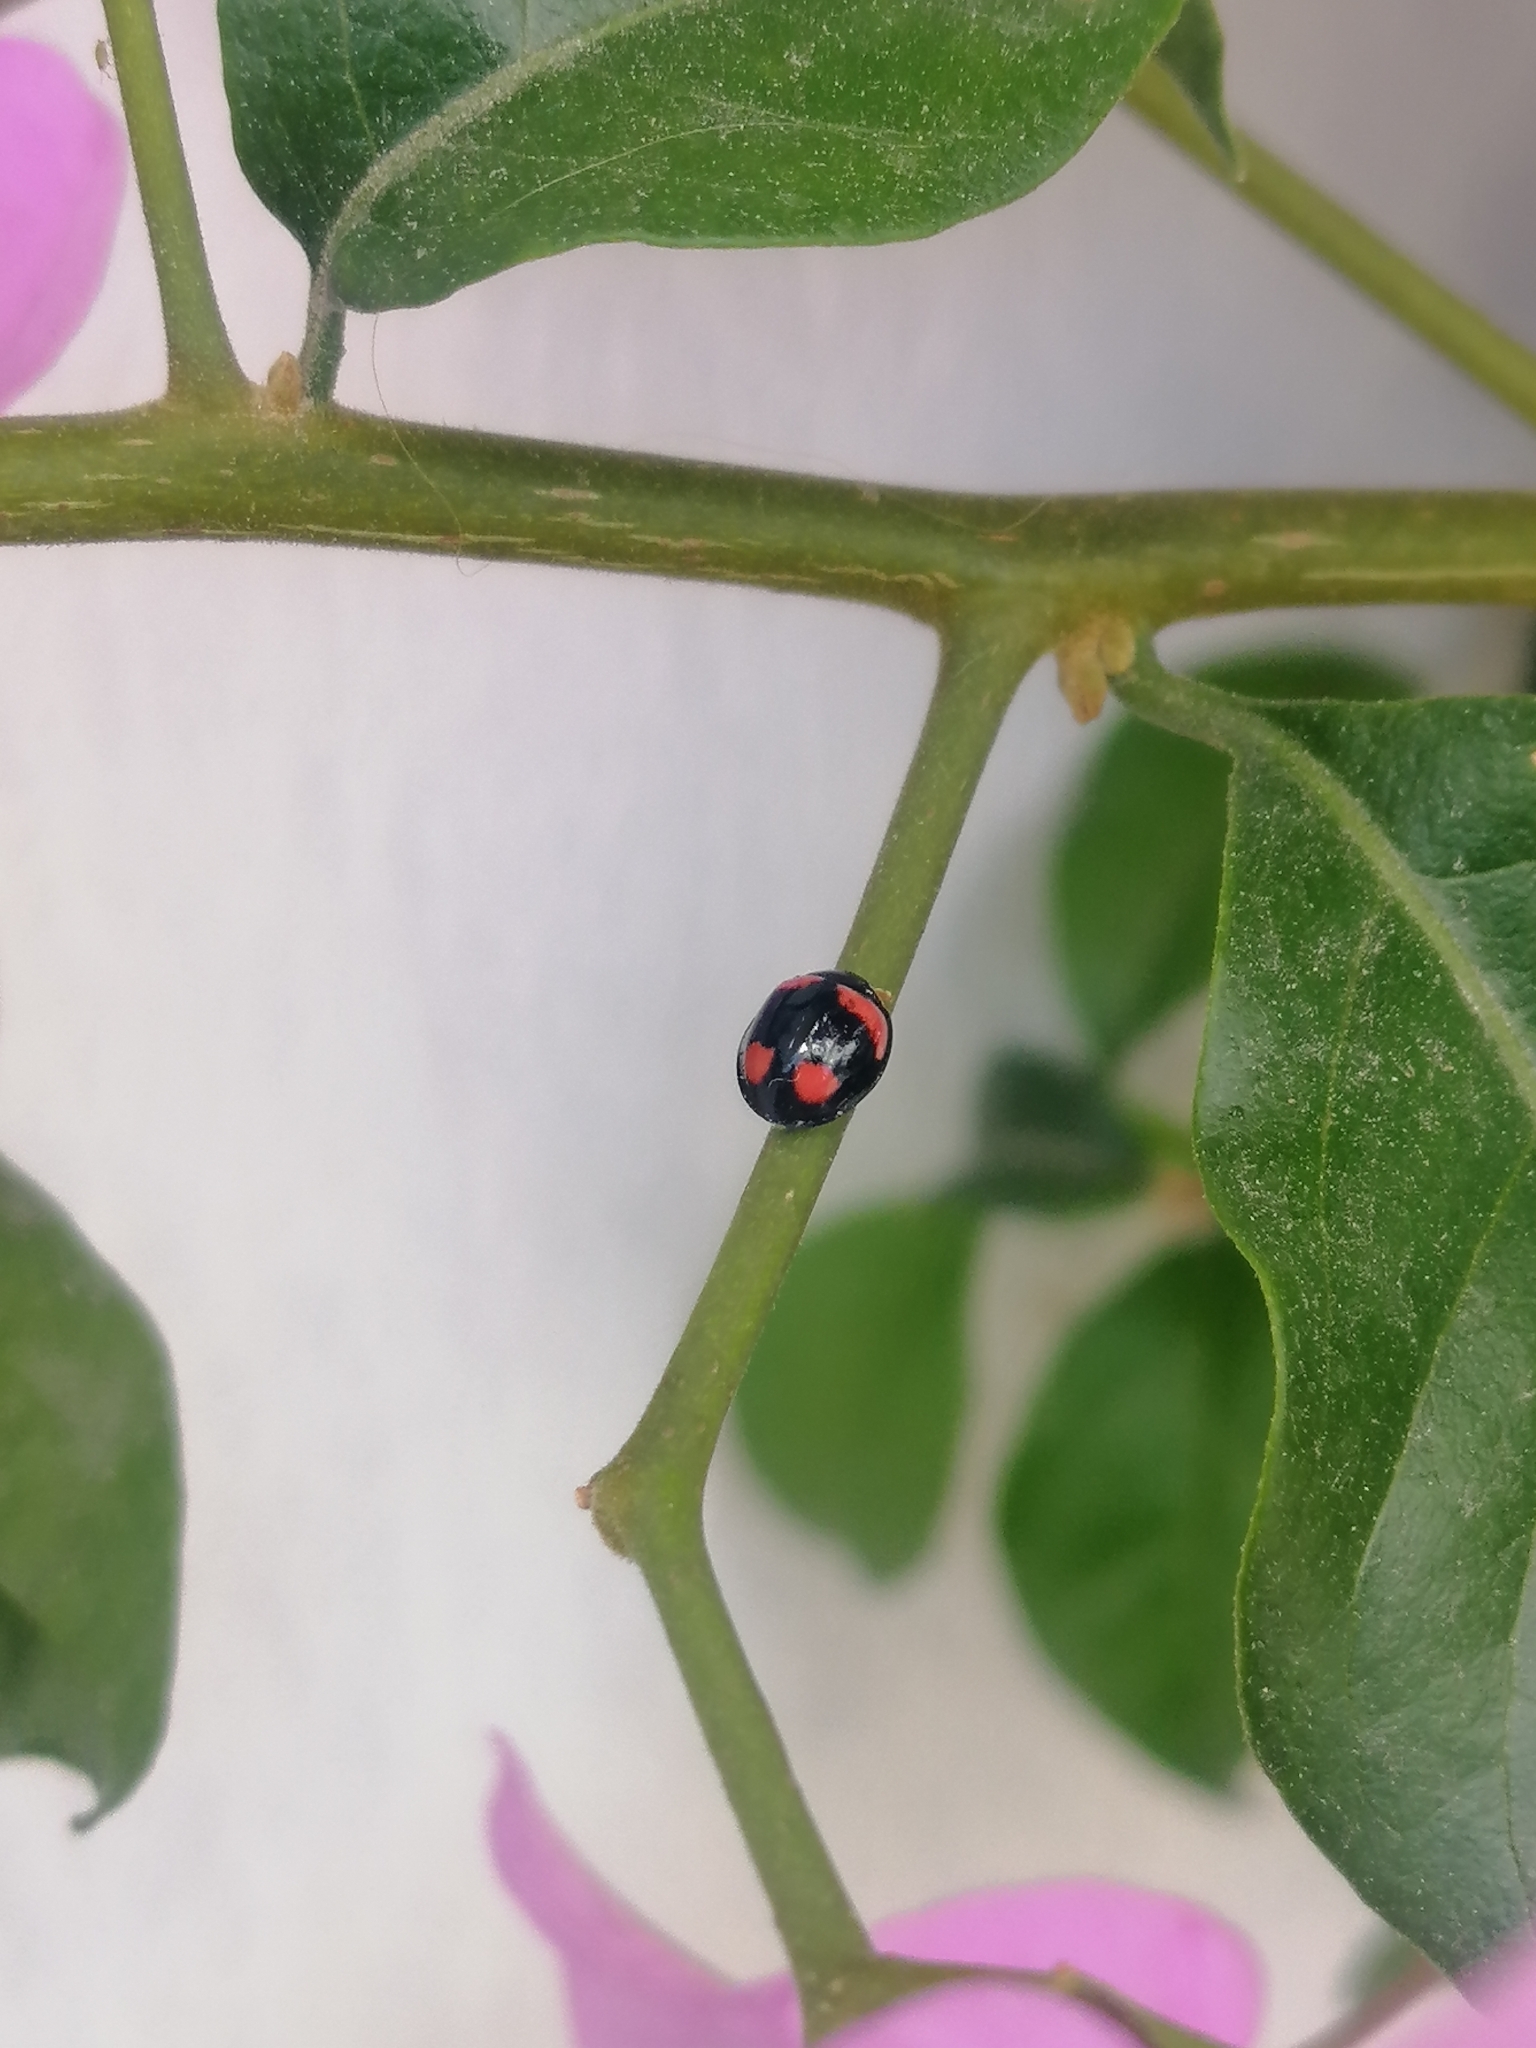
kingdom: Animalia
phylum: Arthropoda
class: Insecta
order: Coleoptera
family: Coccinellidae
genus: Cheilomenes
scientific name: Cheilomenes sexmaculata
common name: Ladybird beetle
